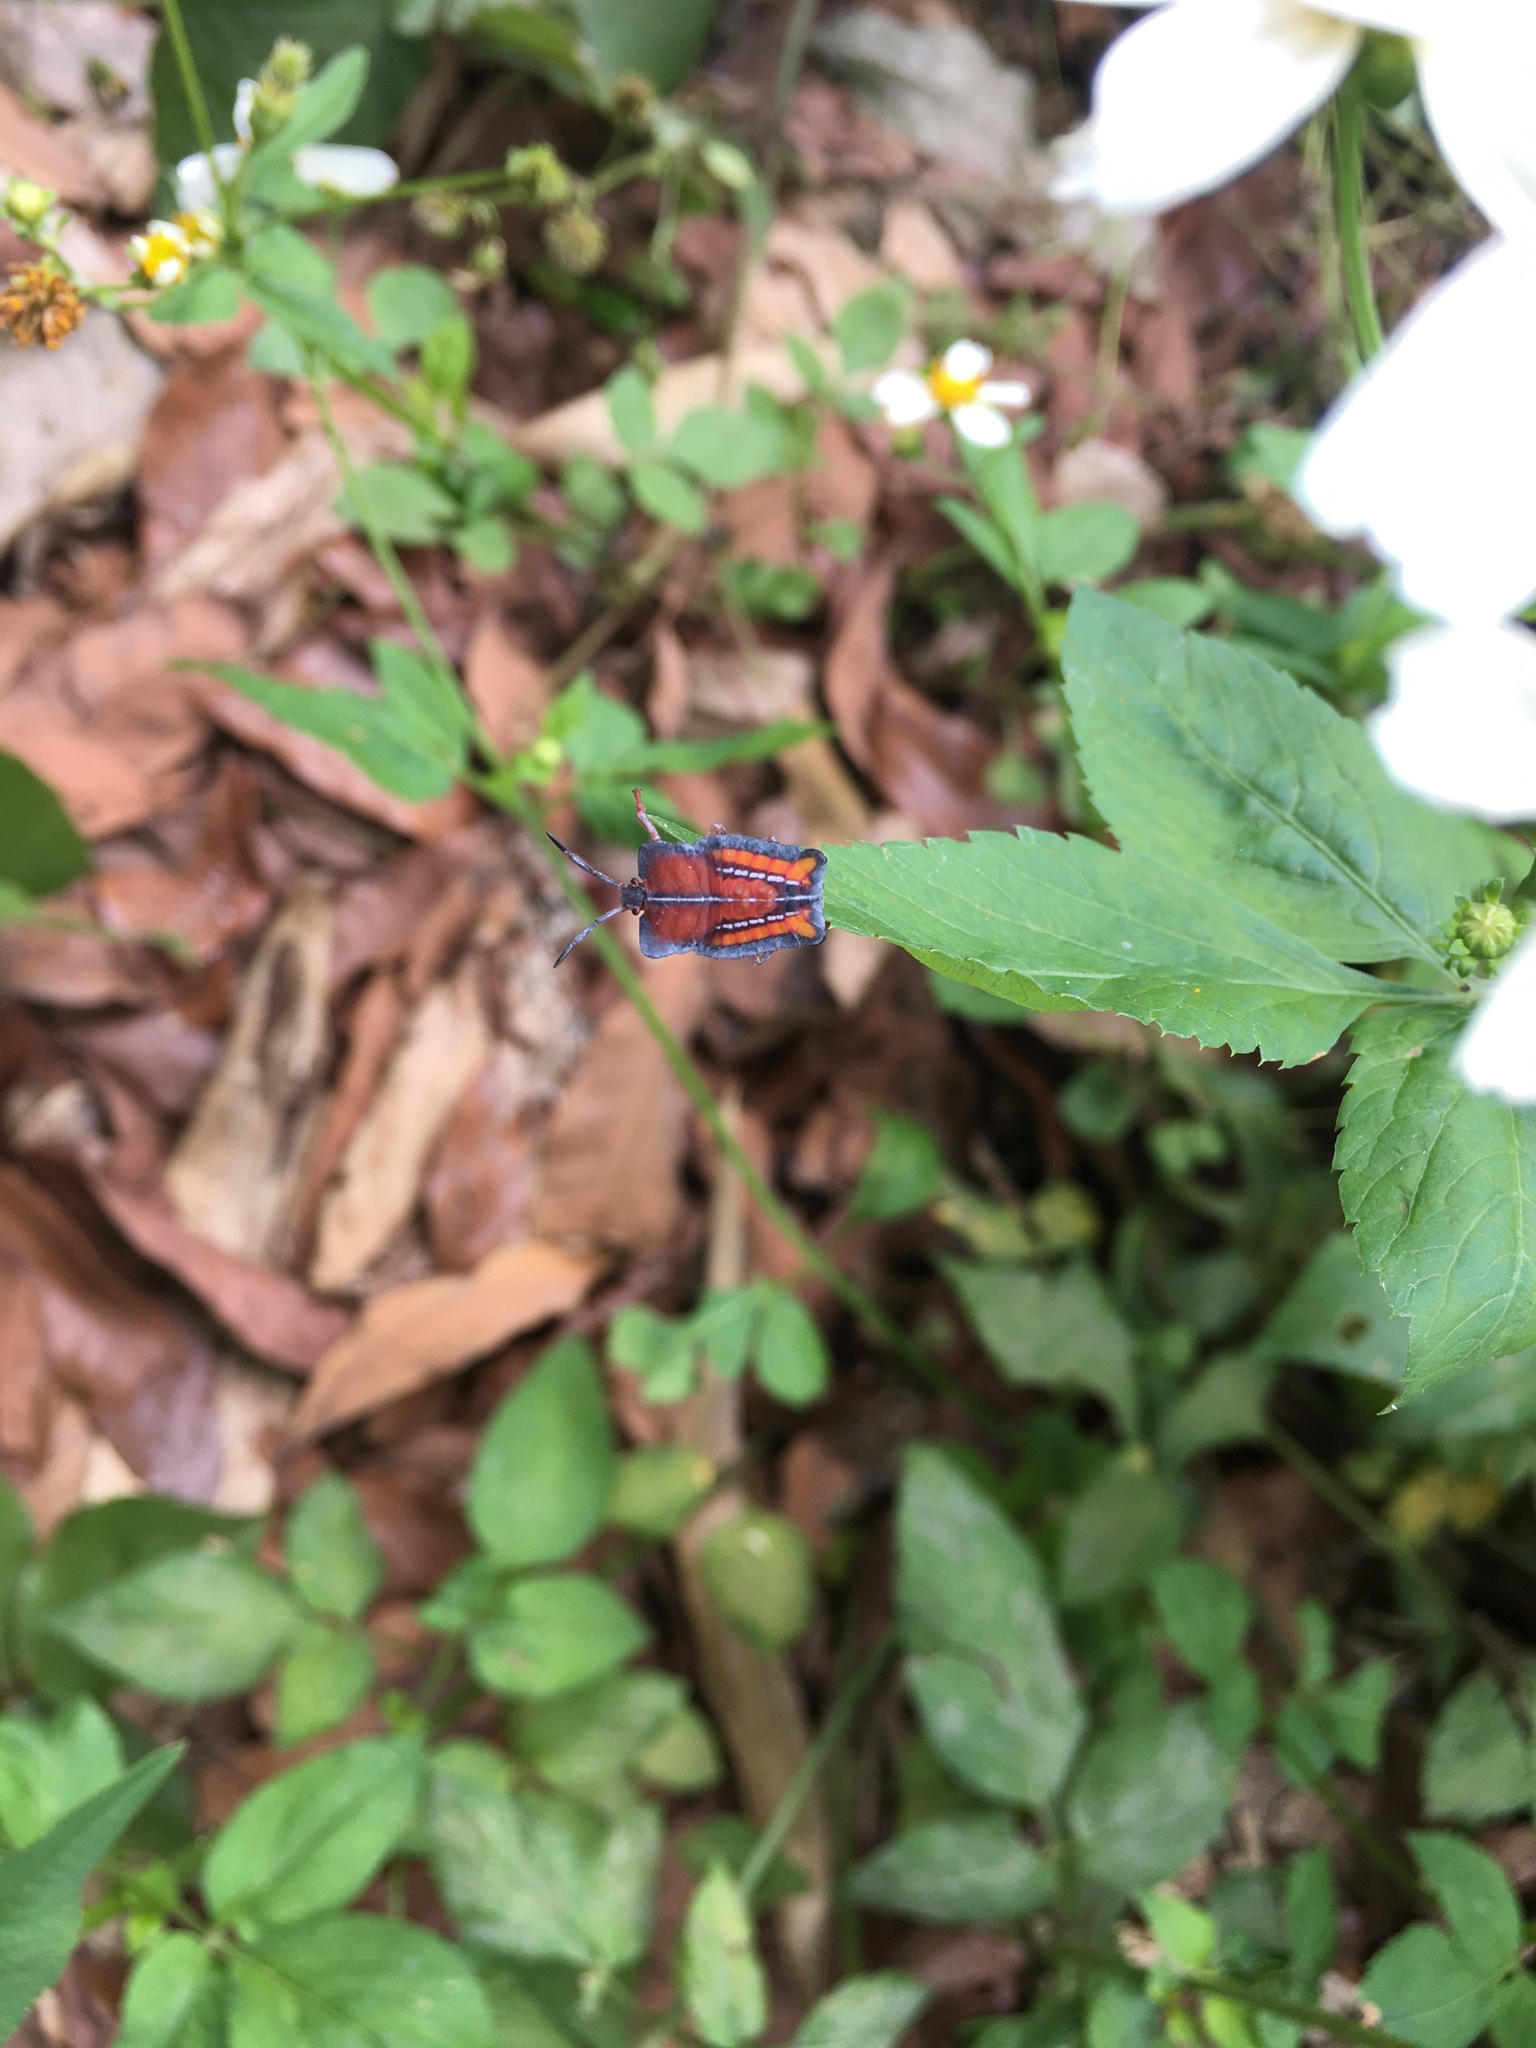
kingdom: Animalia
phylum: Arthropoda
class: Insecta
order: Hemiptera
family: Tessaratomidae
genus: Tessaratoma
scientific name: Tessaratoma papillosa
